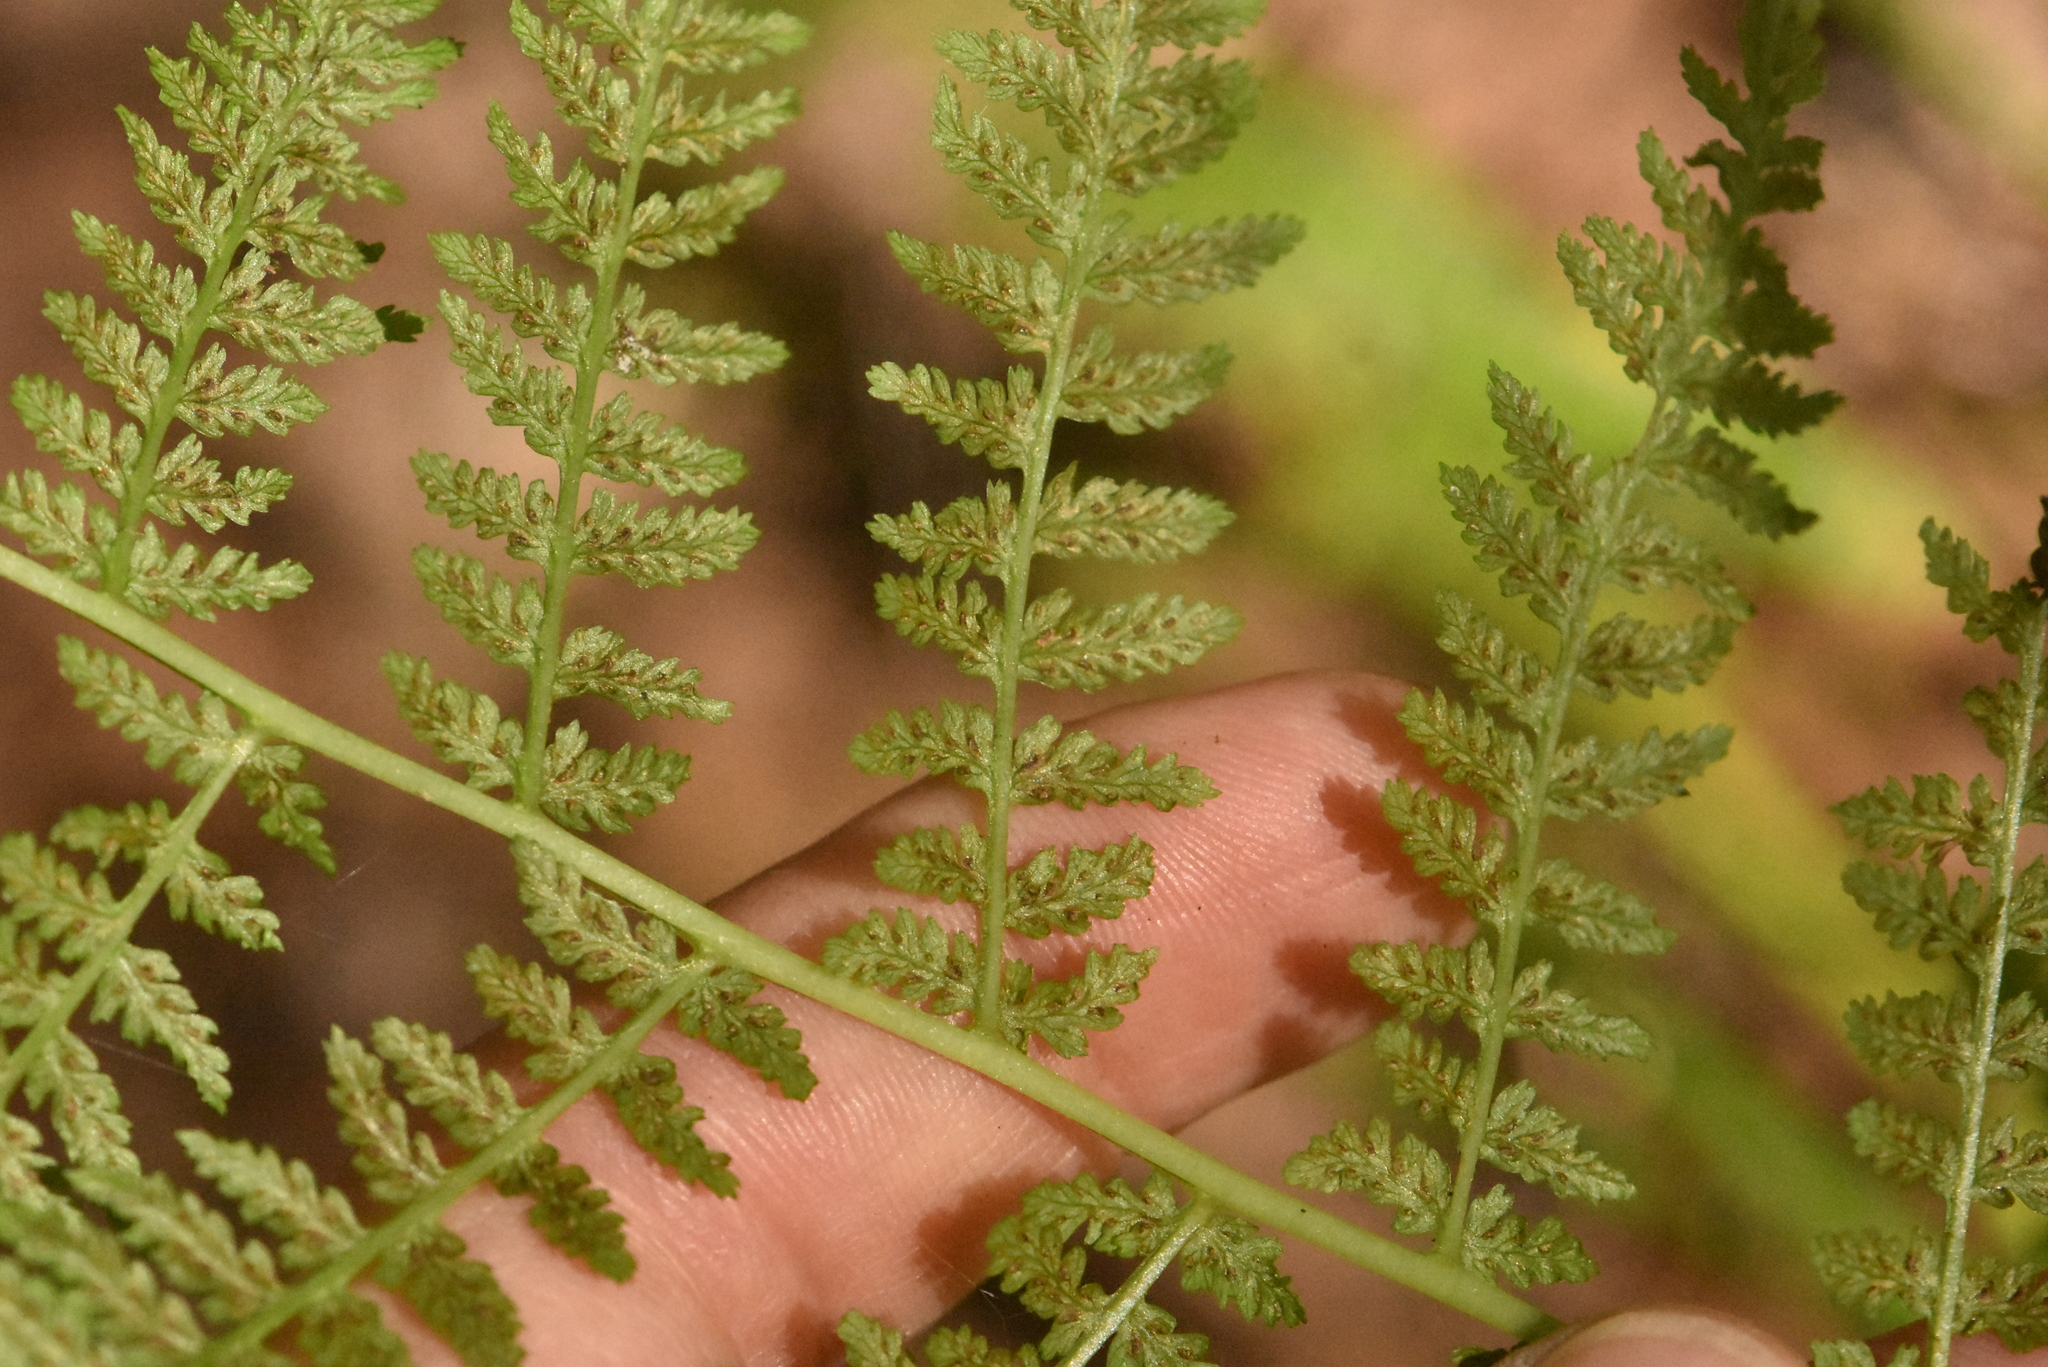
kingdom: Plantae
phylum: Tracheophyta
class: Polypodiopsida
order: Polypodiales
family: Athyriaceae
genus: Athyrium
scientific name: Athyrium filix-femina
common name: Lady fern
